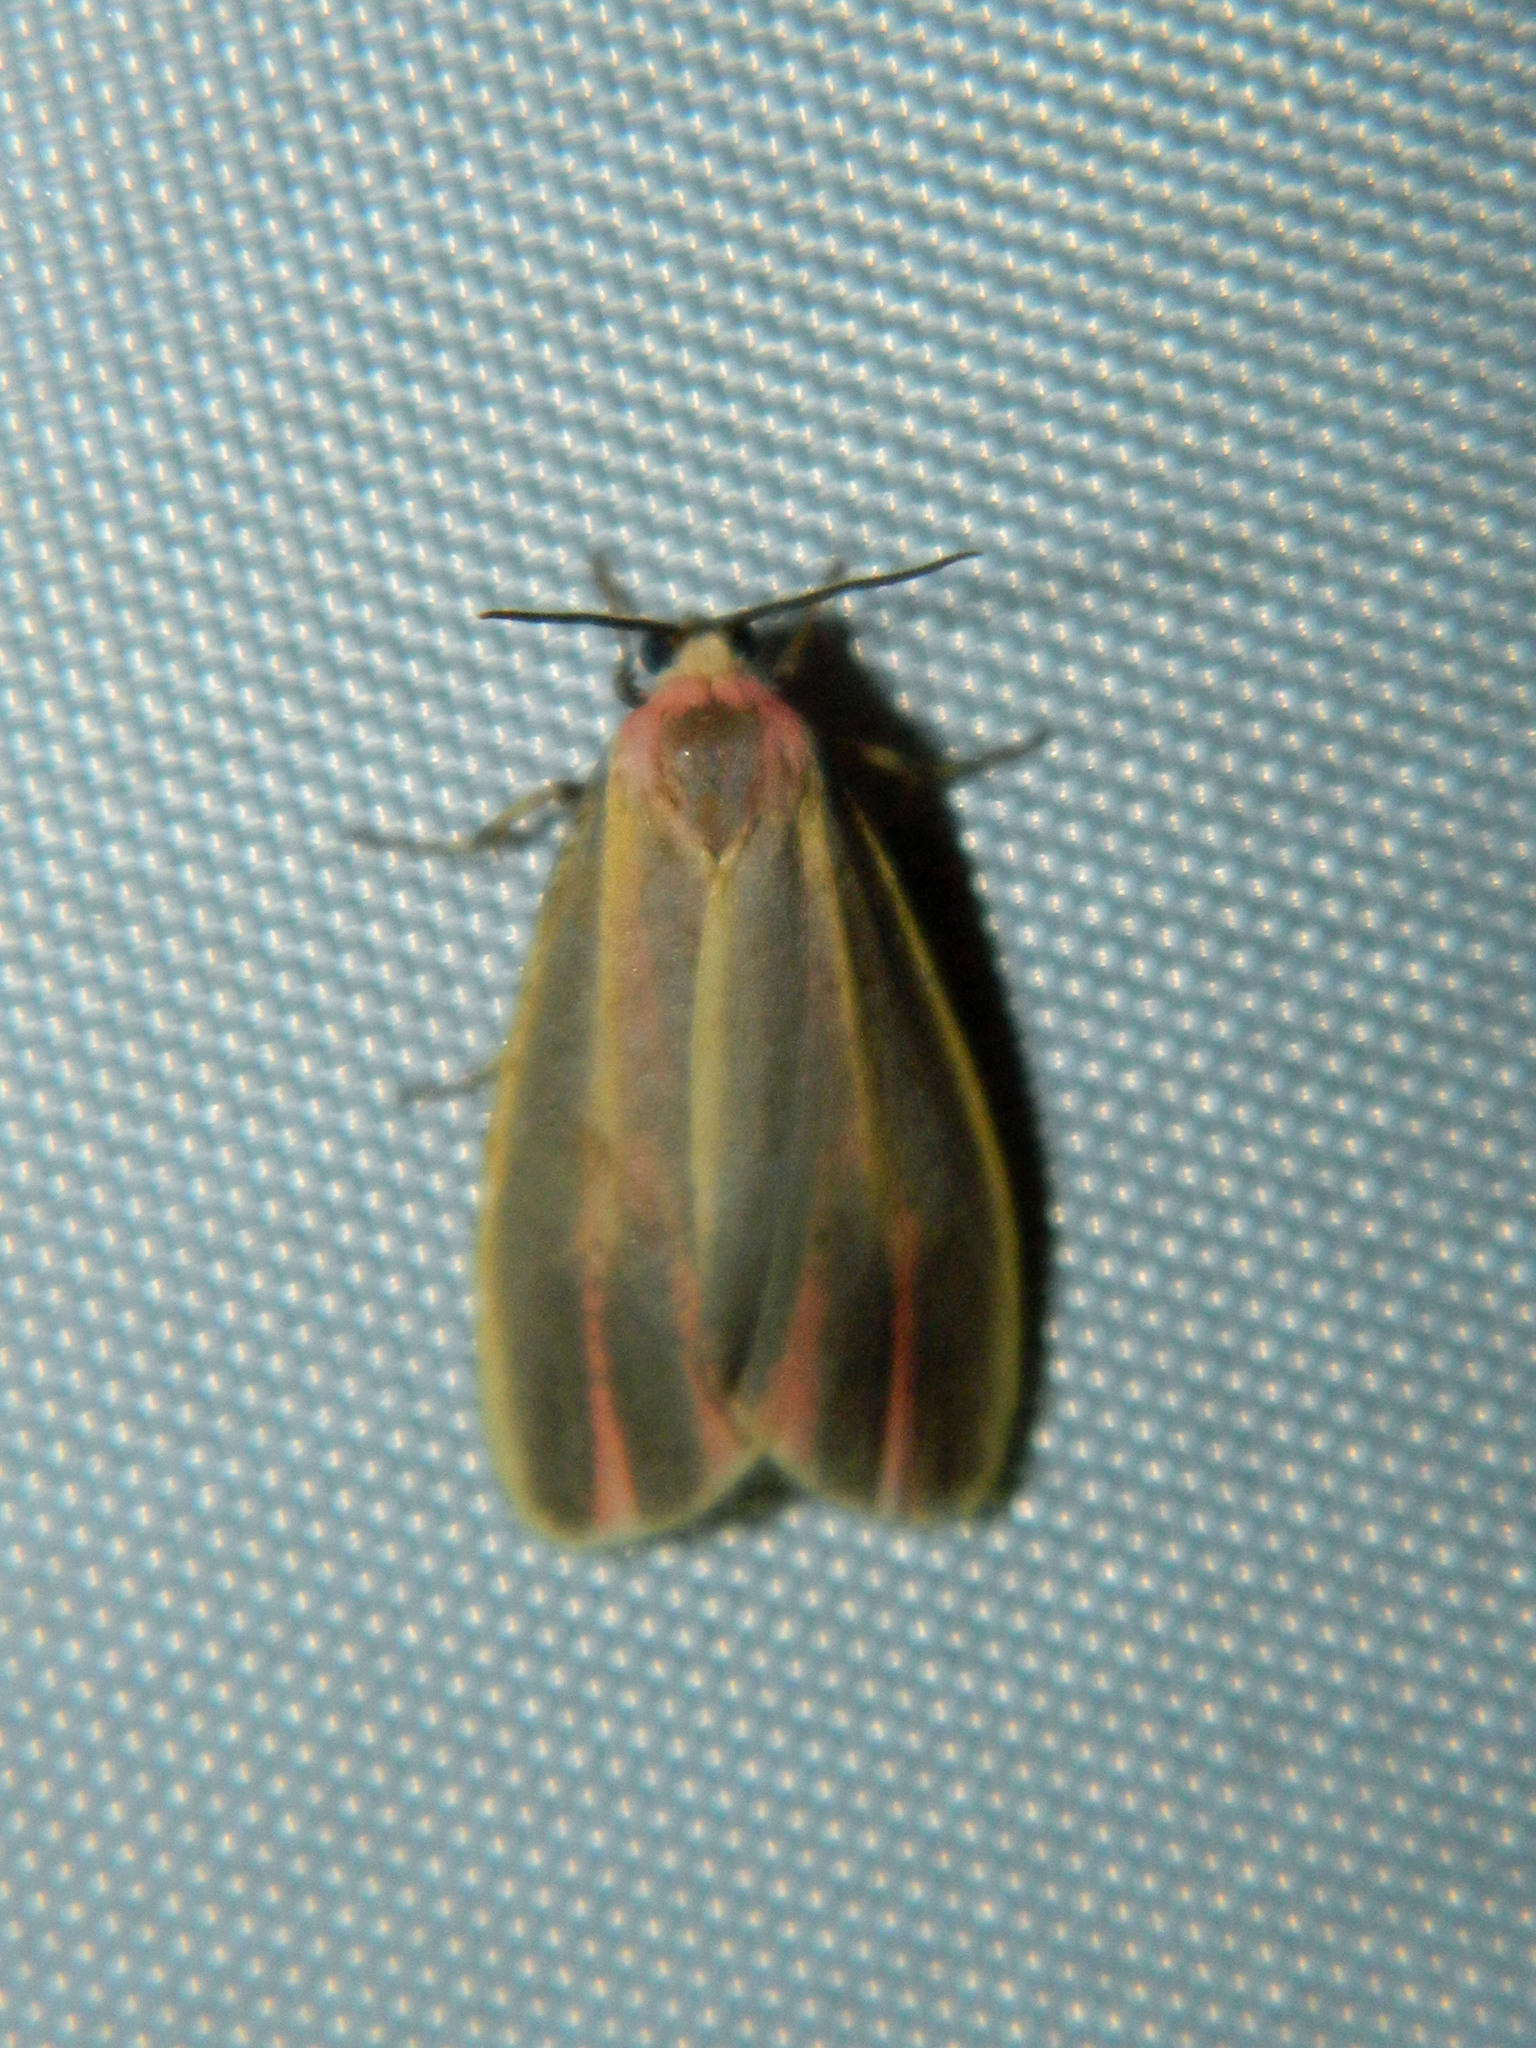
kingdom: Animalia
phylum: Arthropoda
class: Insecta
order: Lepidoptera
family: Erebidae
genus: Hypoprepia
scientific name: Hypoprepia fucosa
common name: Painted lichen moth
